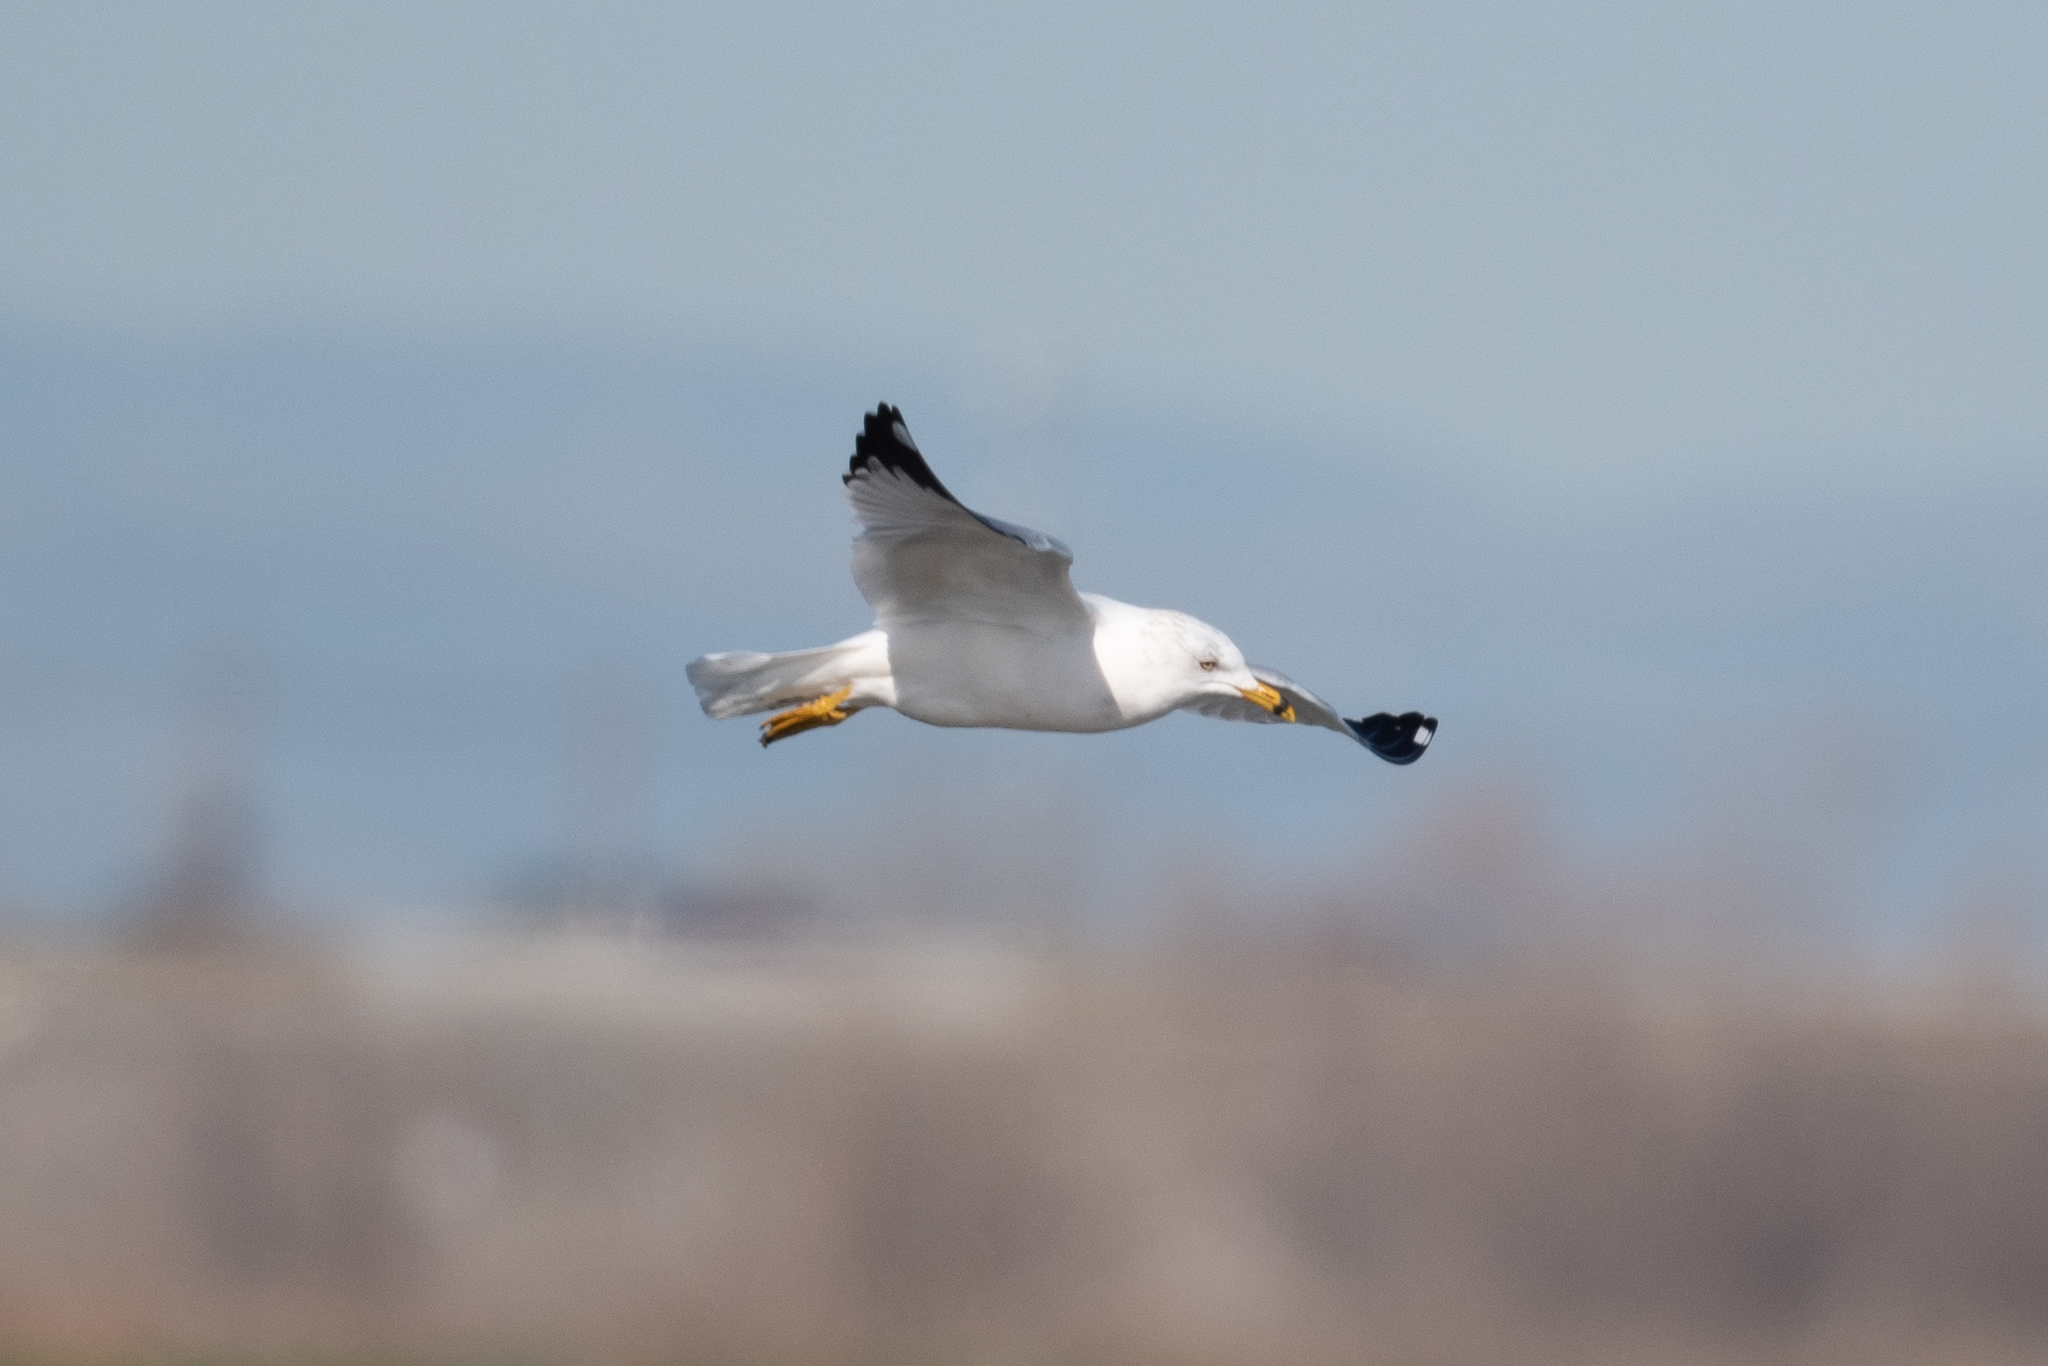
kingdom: Animalia
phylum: Chordata
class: Aves
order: Charadriiformes
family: Laridae
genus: Larus
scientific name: Larus delawarensis
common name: Ring-billed gull
